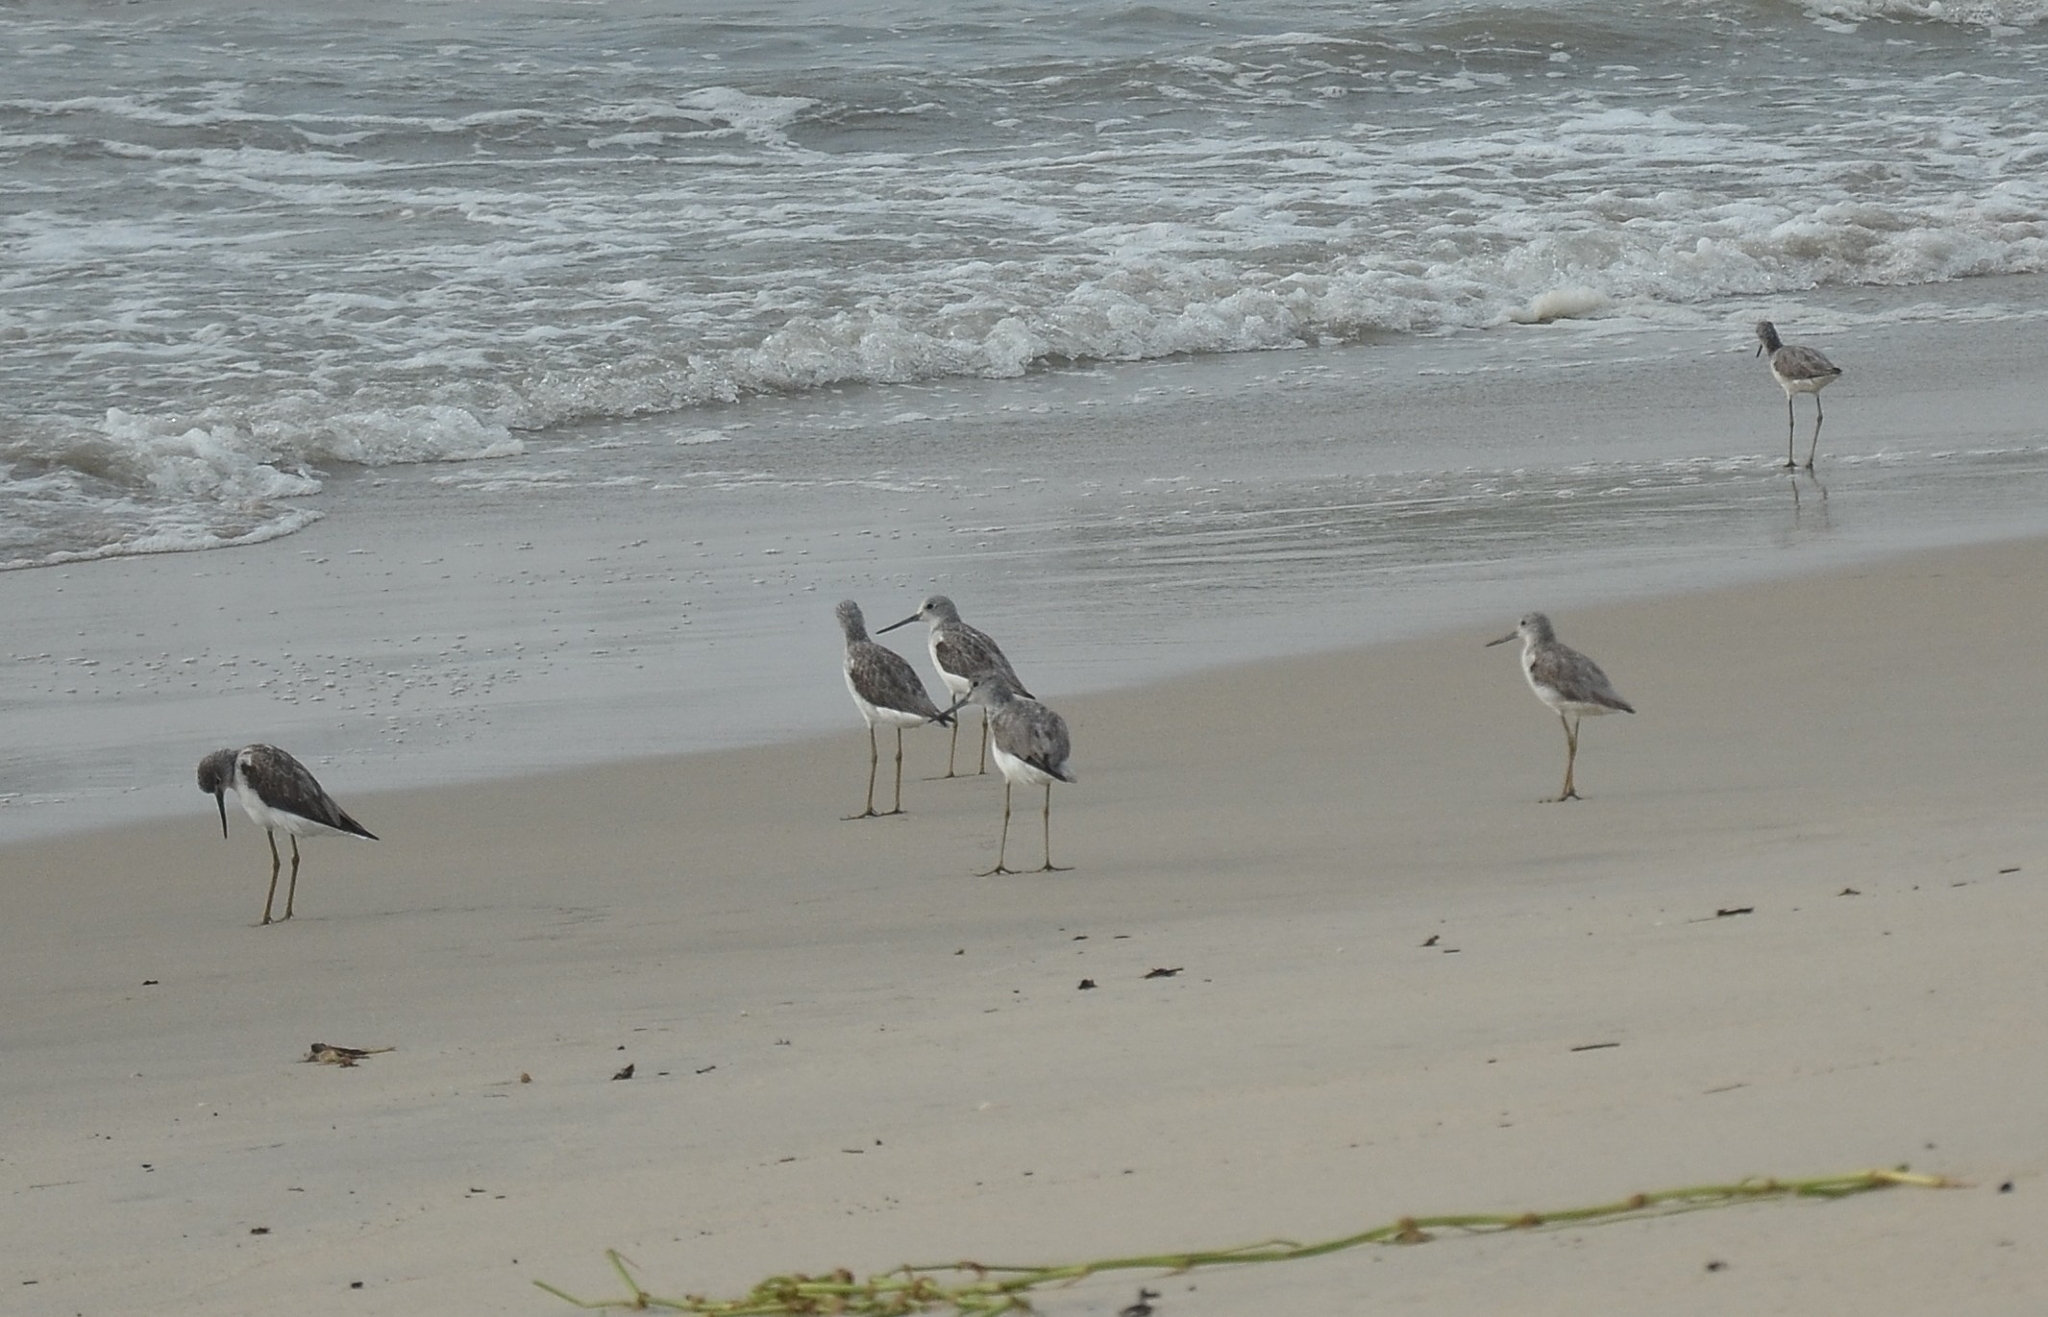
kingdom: Animalia
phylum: Chordata
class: Aves
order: Charadriiformes
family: Scolopacidae
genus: Tringa
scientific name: Tringa nebularia
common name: Common greenshank
